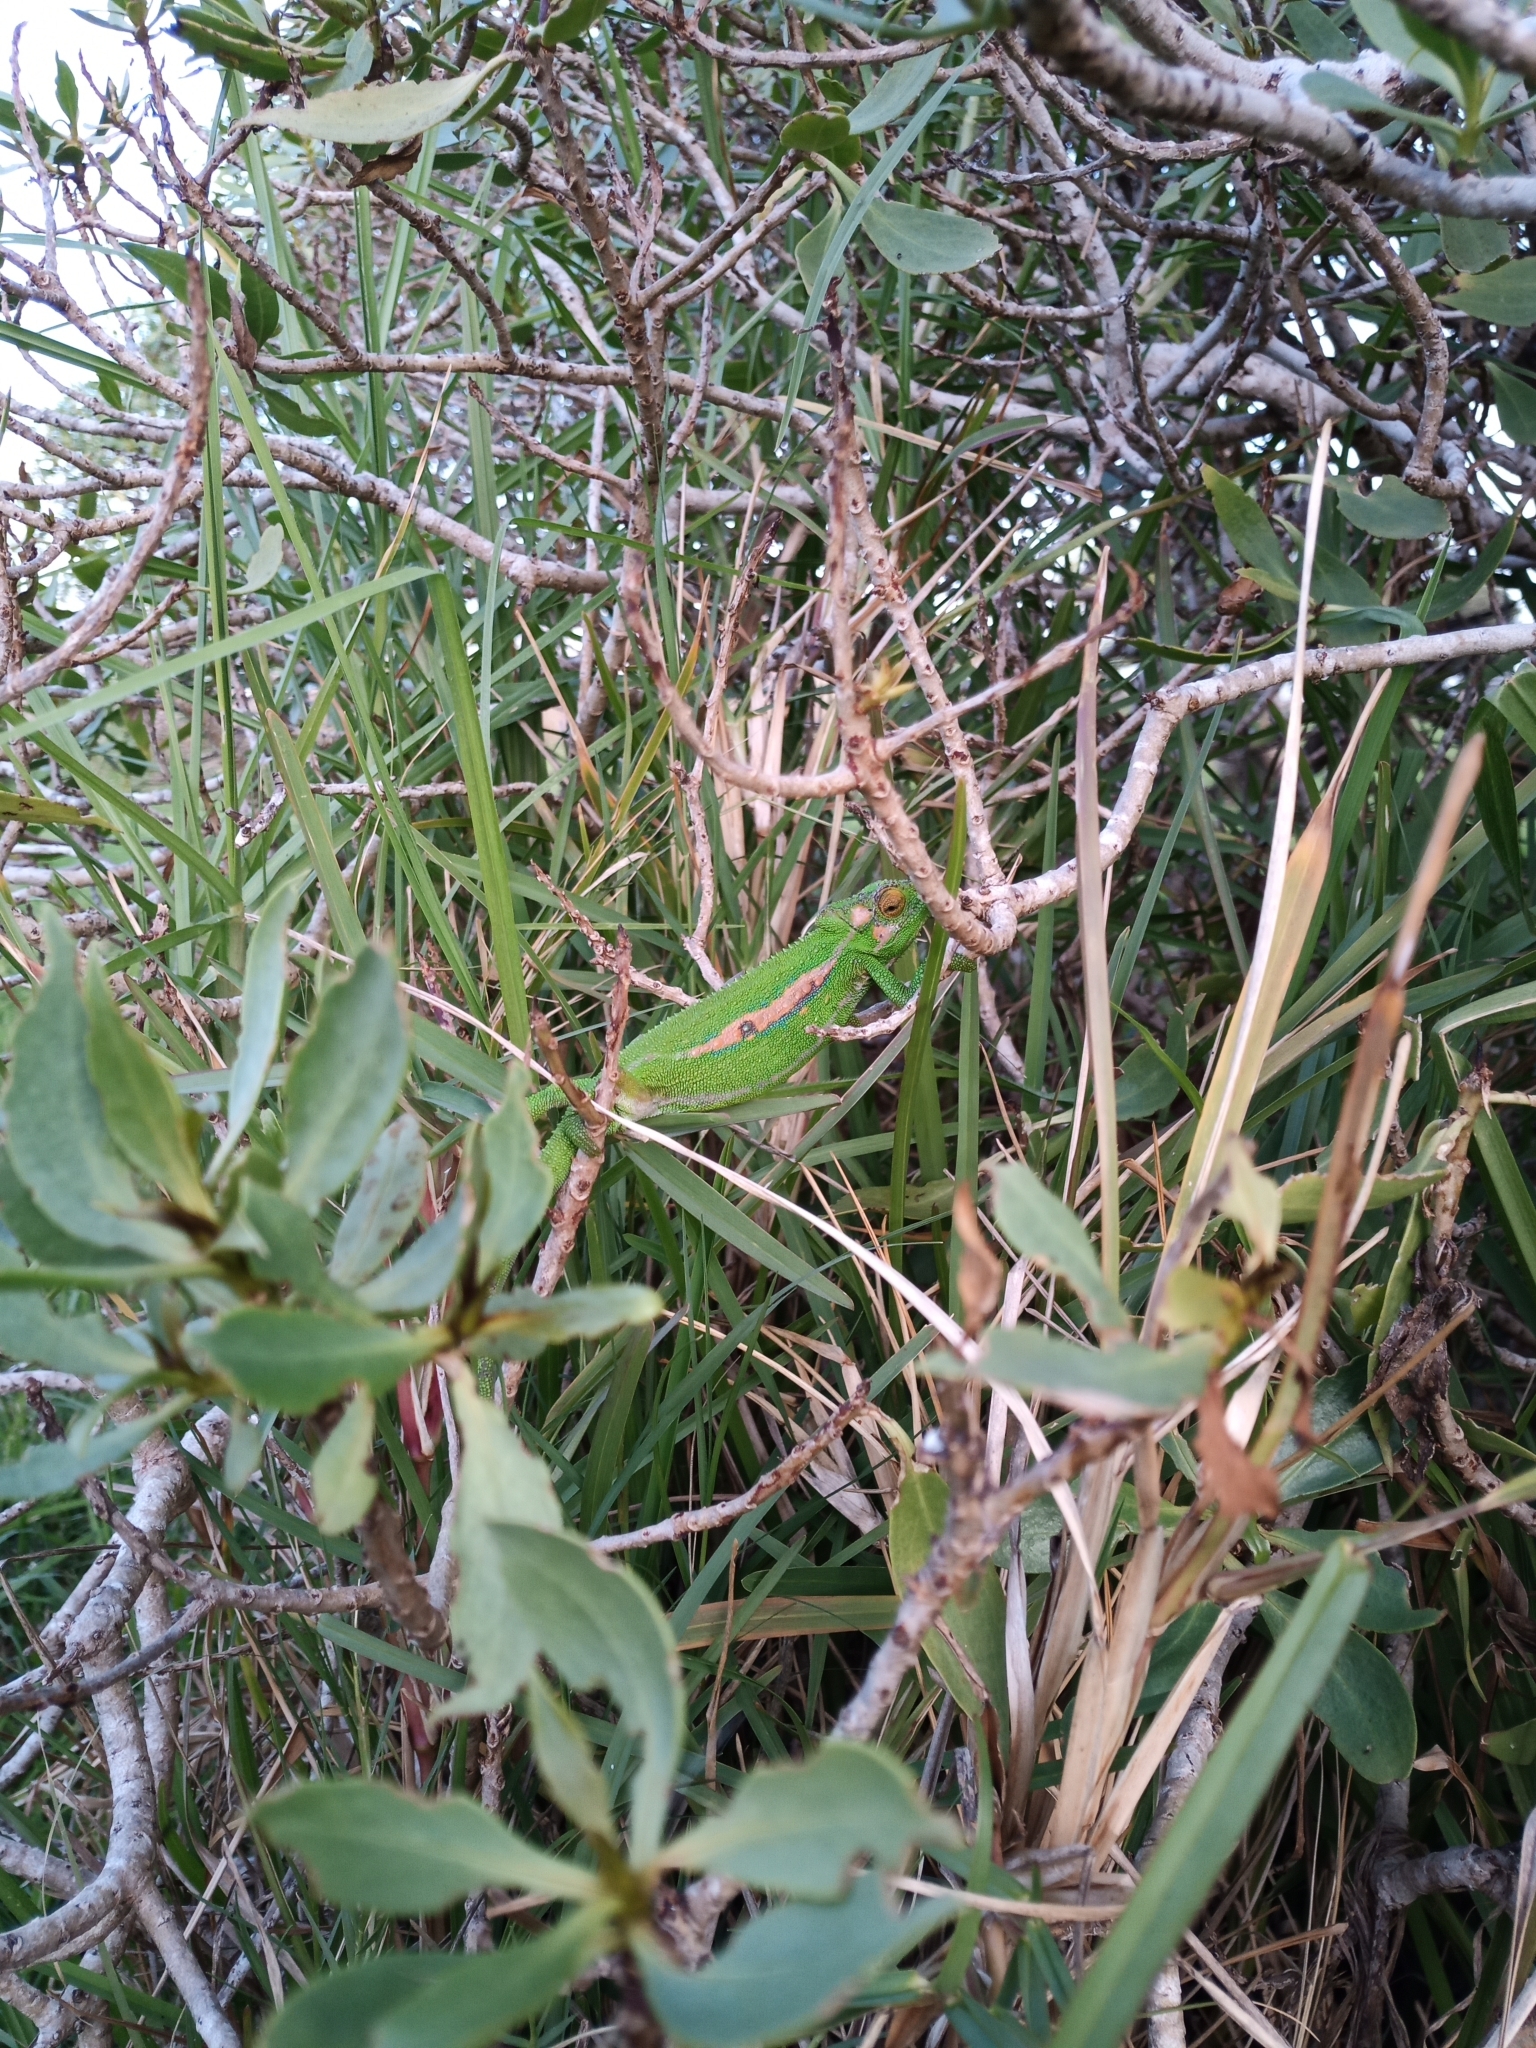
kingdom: Animalia
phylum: Chordata
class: Squamata
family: Chamaeleonidae
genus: Bradypodion
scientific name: Bradypodion pumilum
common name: Cape dwarf chameleon
